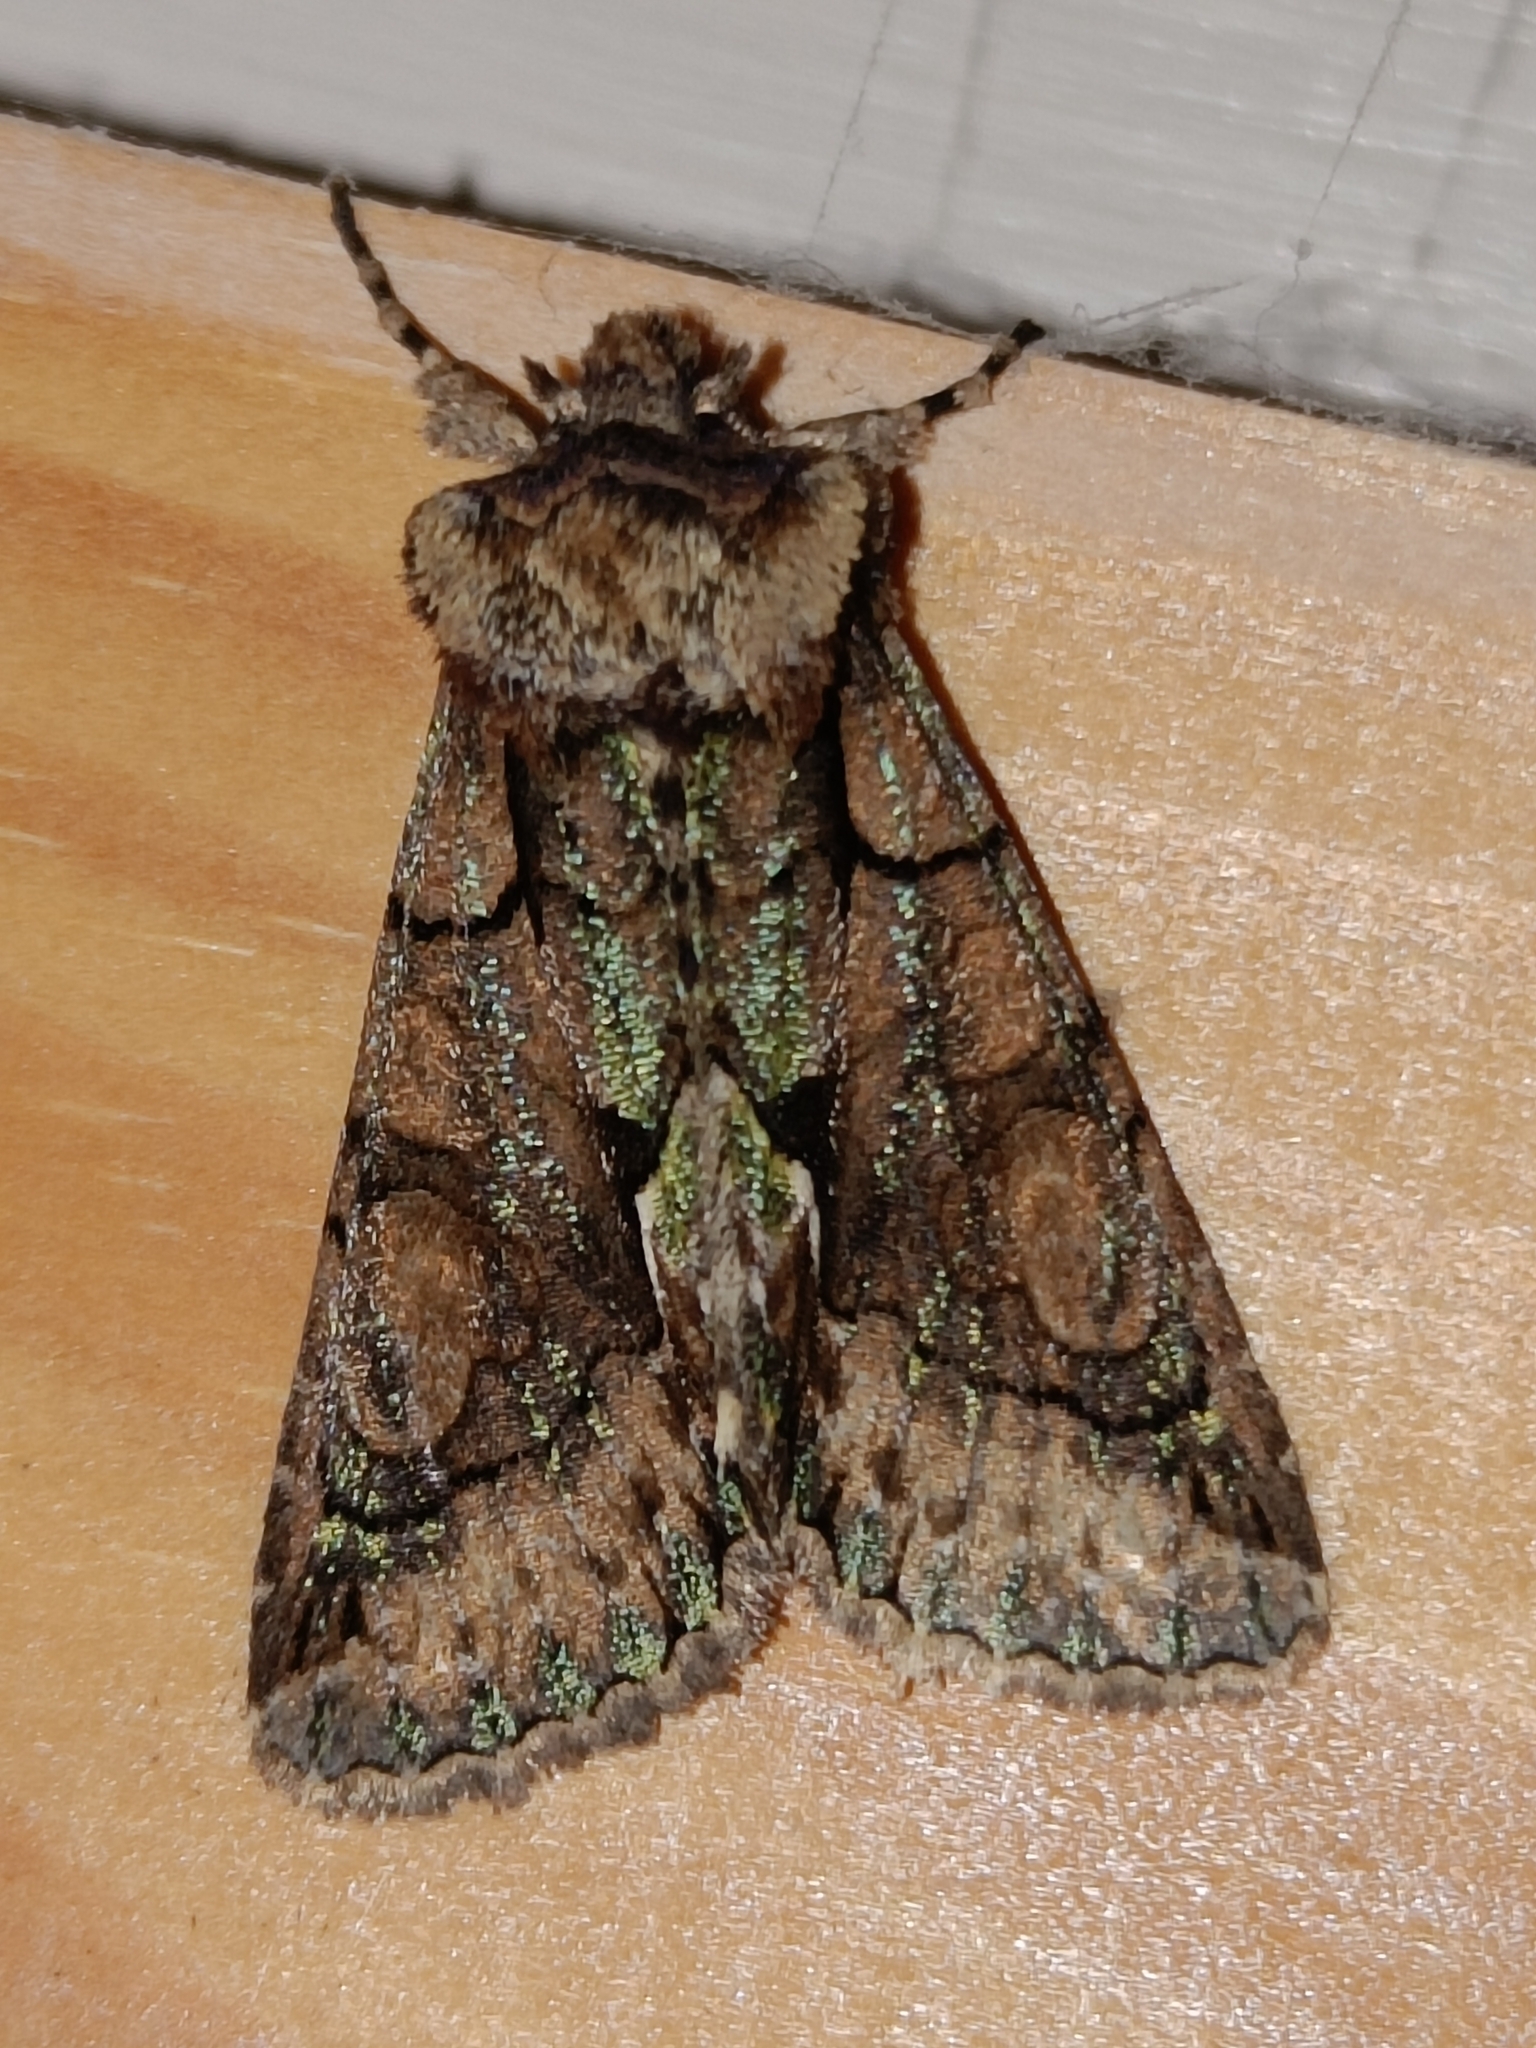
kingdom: Animalia
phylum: Arthropoda
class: Insecta
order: Lepidoptera
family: Noctuidae
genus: Allophyes
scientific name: Allophyes oxyacanthae
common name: Green-brindled crescent
